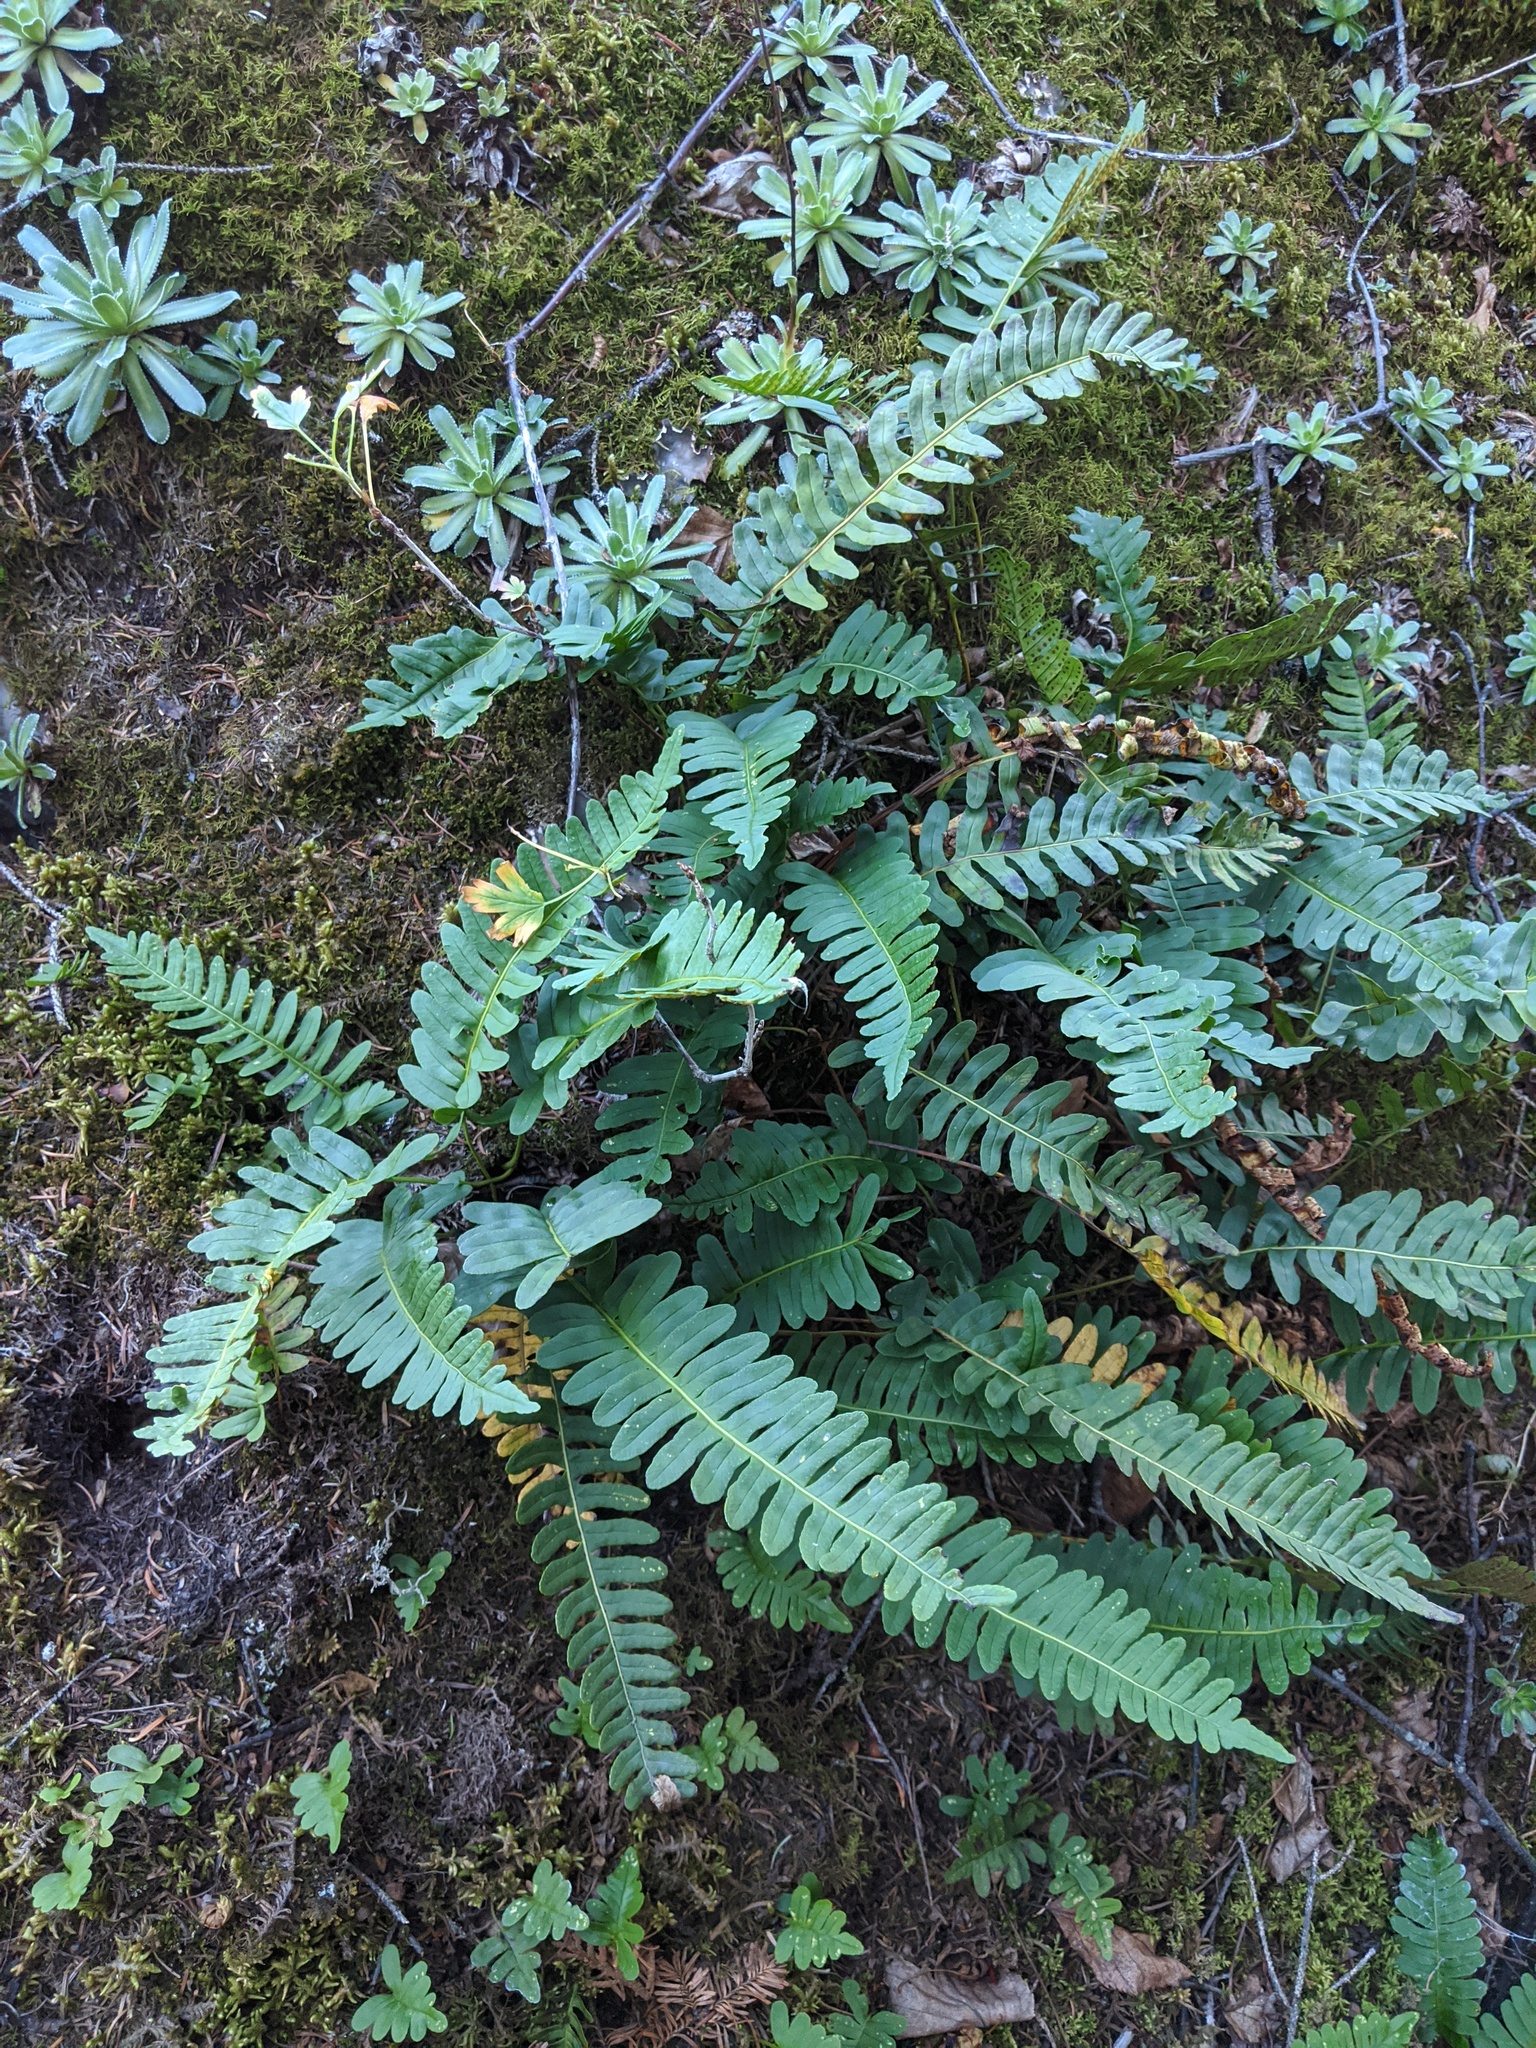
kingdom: Plantae
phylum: Tracheophyta
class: Polypodiopsida
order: Polypodiales
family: Polypodiaceae
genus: Polypodium
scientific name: Polypodium virginianum
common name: American wall fern
